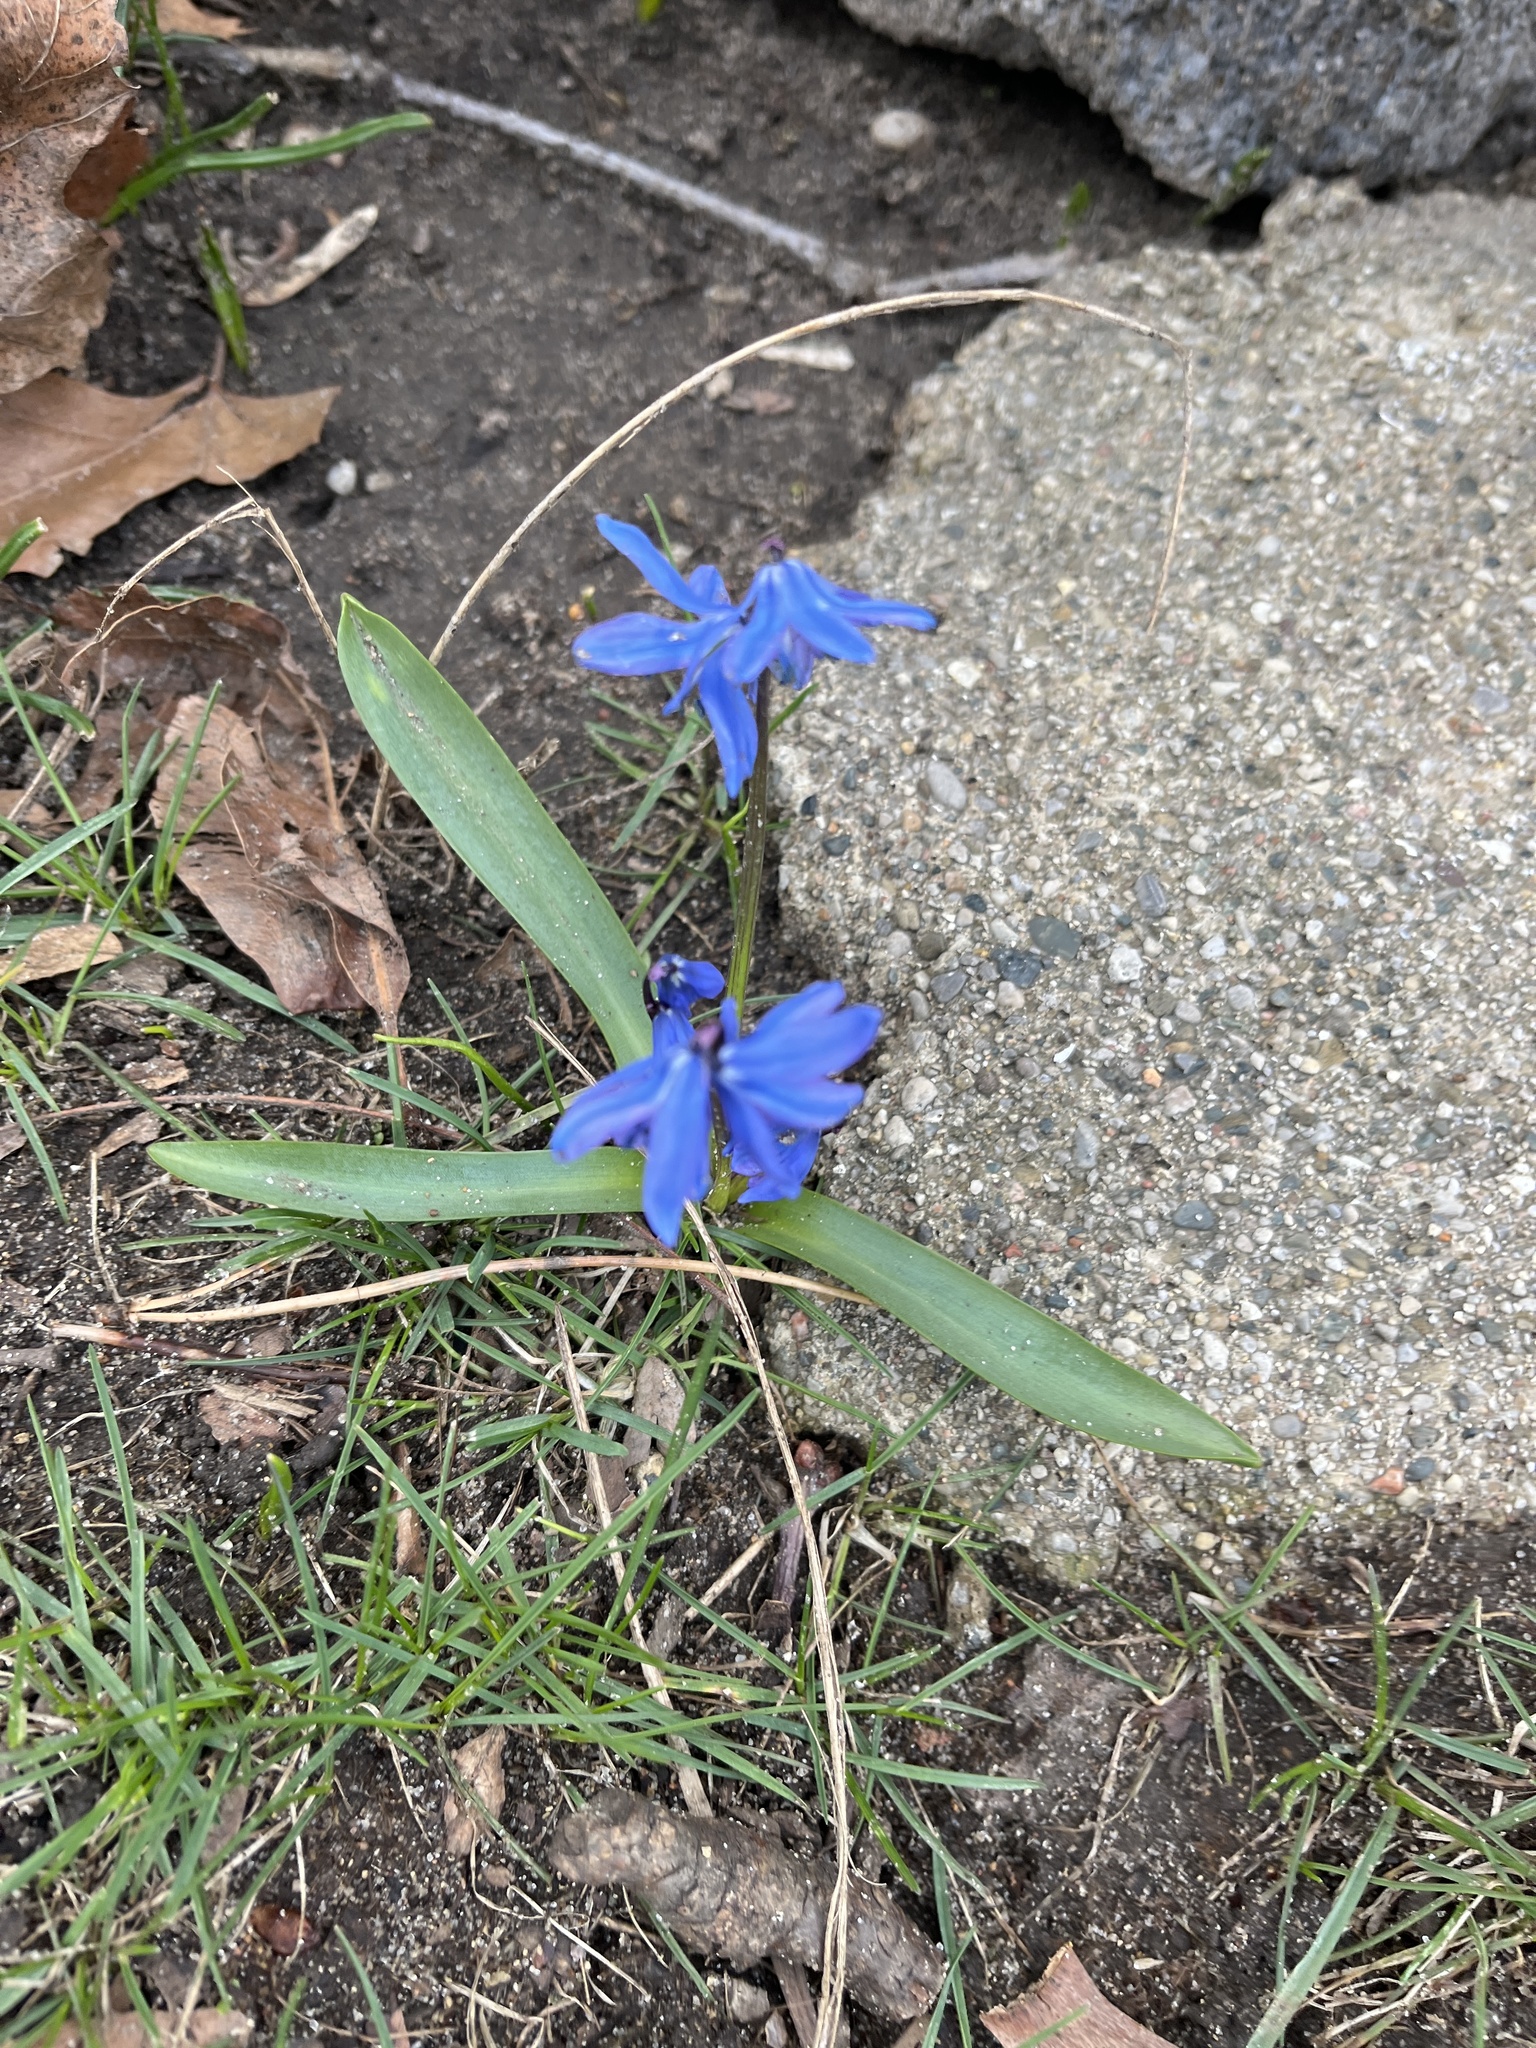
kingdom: Plantae
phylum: Tracheophyta
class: Liliopsida
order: Asparagales
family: Asparagaceae
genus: Scilla
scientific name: Scilla siberica
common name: Siberian squill
